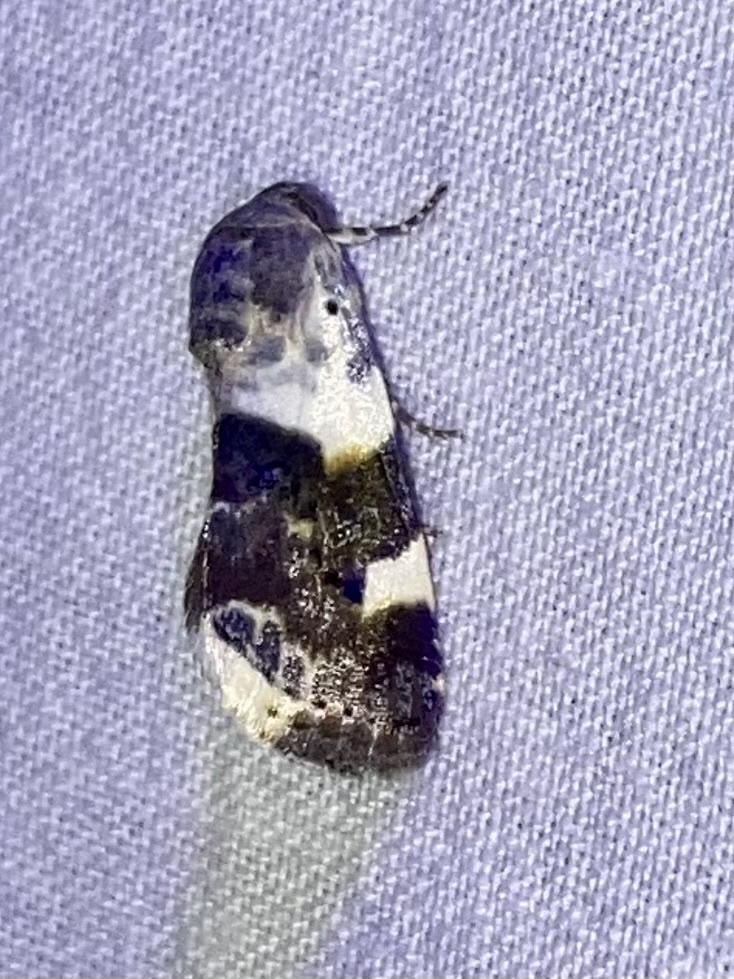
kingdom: Animalia
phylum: Arthropoda
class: Insecta
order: Lepidoptera
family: Noctuidae
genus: Acontia
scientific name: Acontia lucida
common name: Pale shoulder
